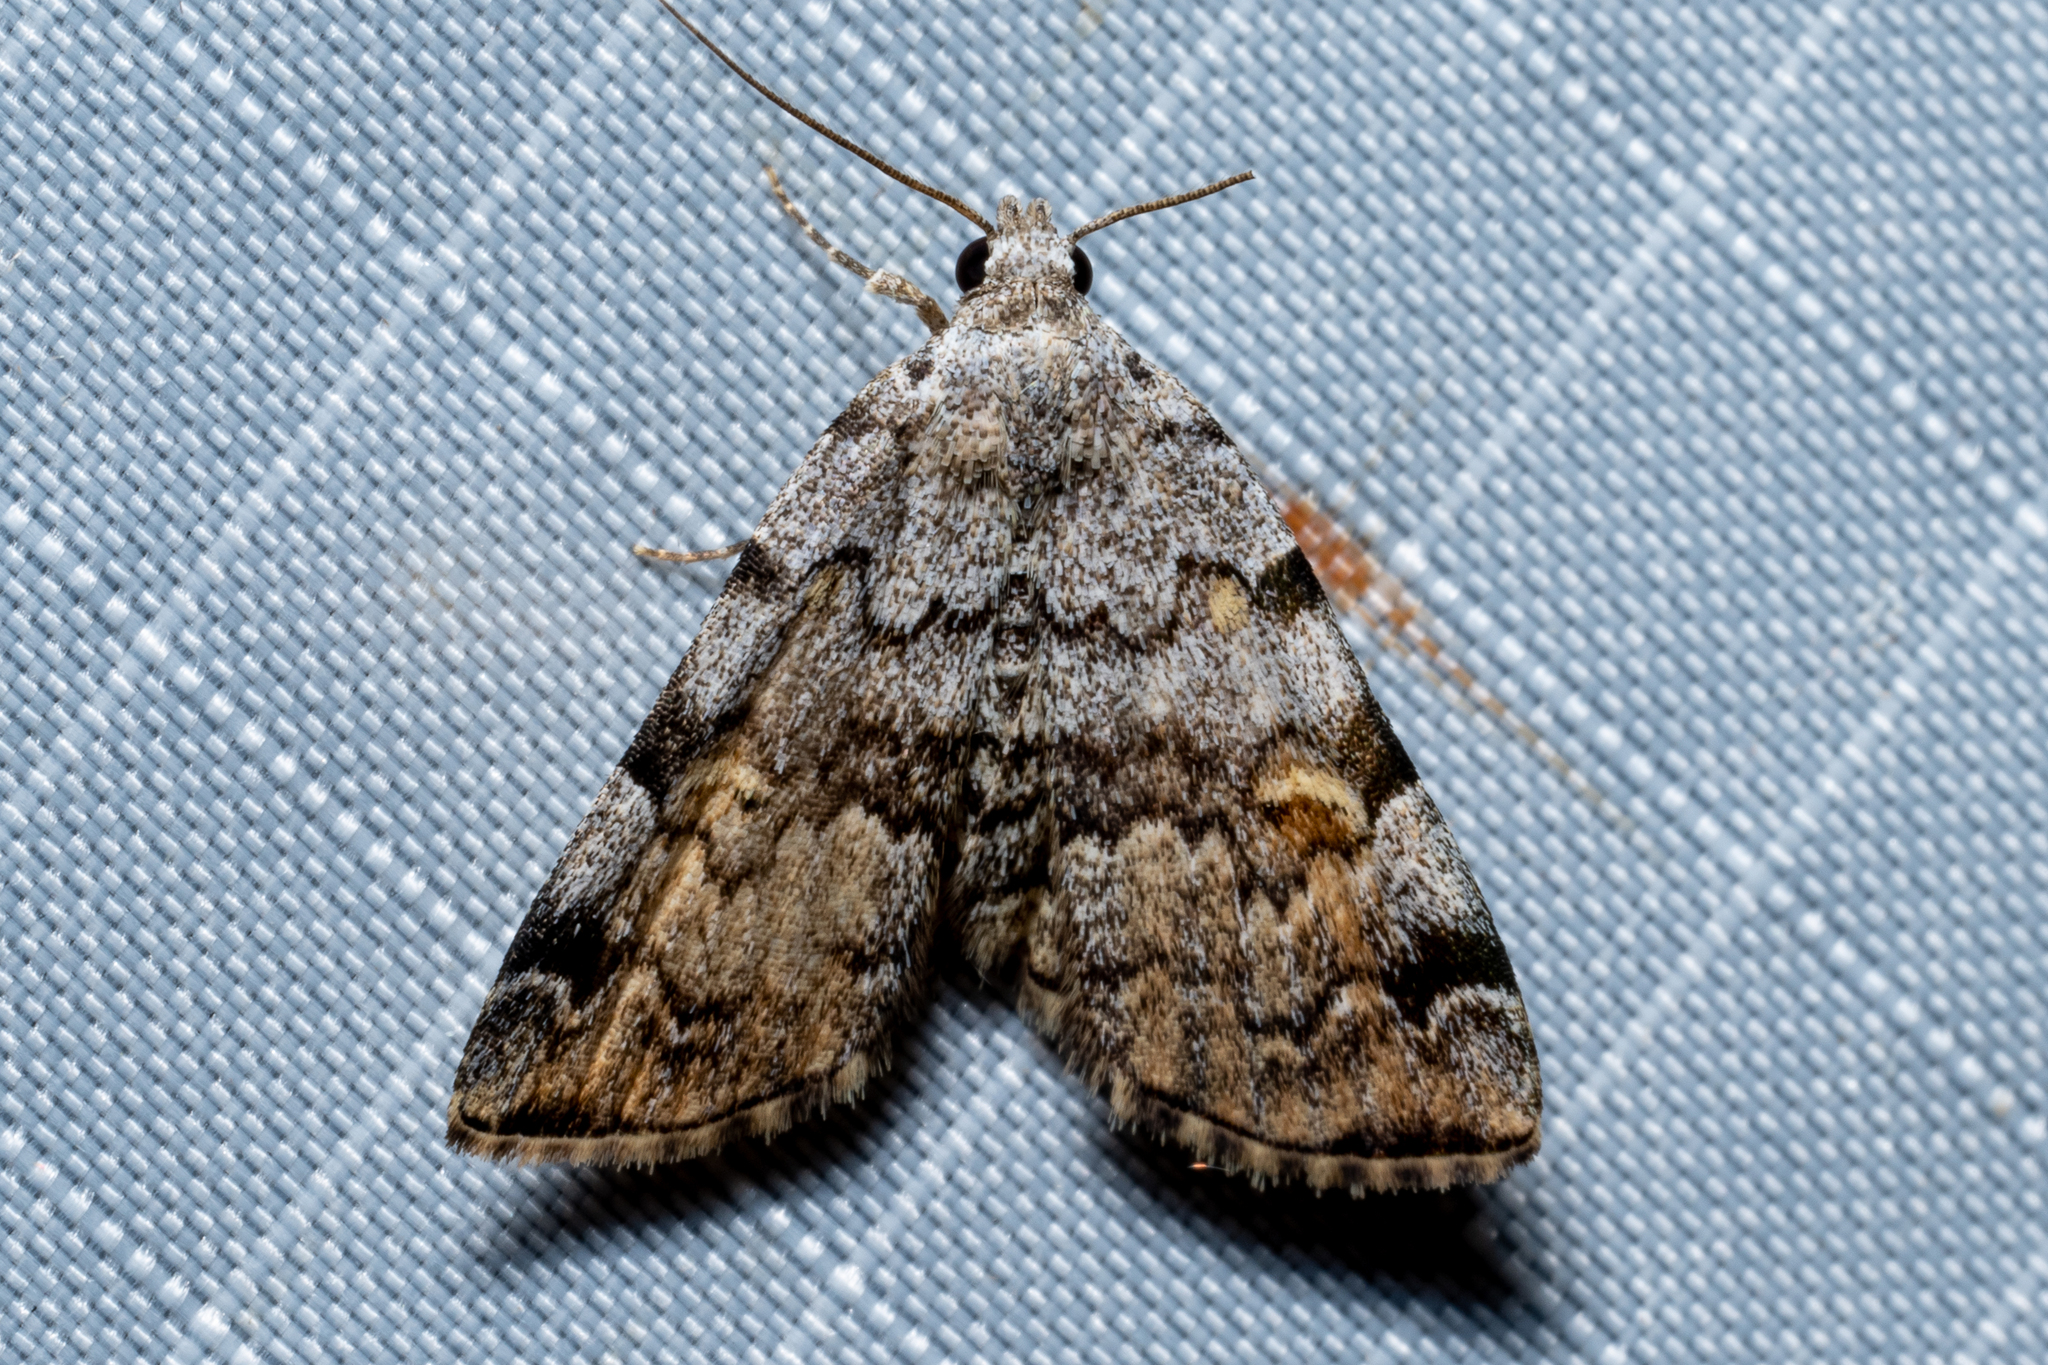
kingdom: Animalia
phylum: Arthropoda
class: Insecta
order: Lepidoptera
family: Erebidae
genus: Idia
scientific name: Idia americalis
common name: American idia moth
